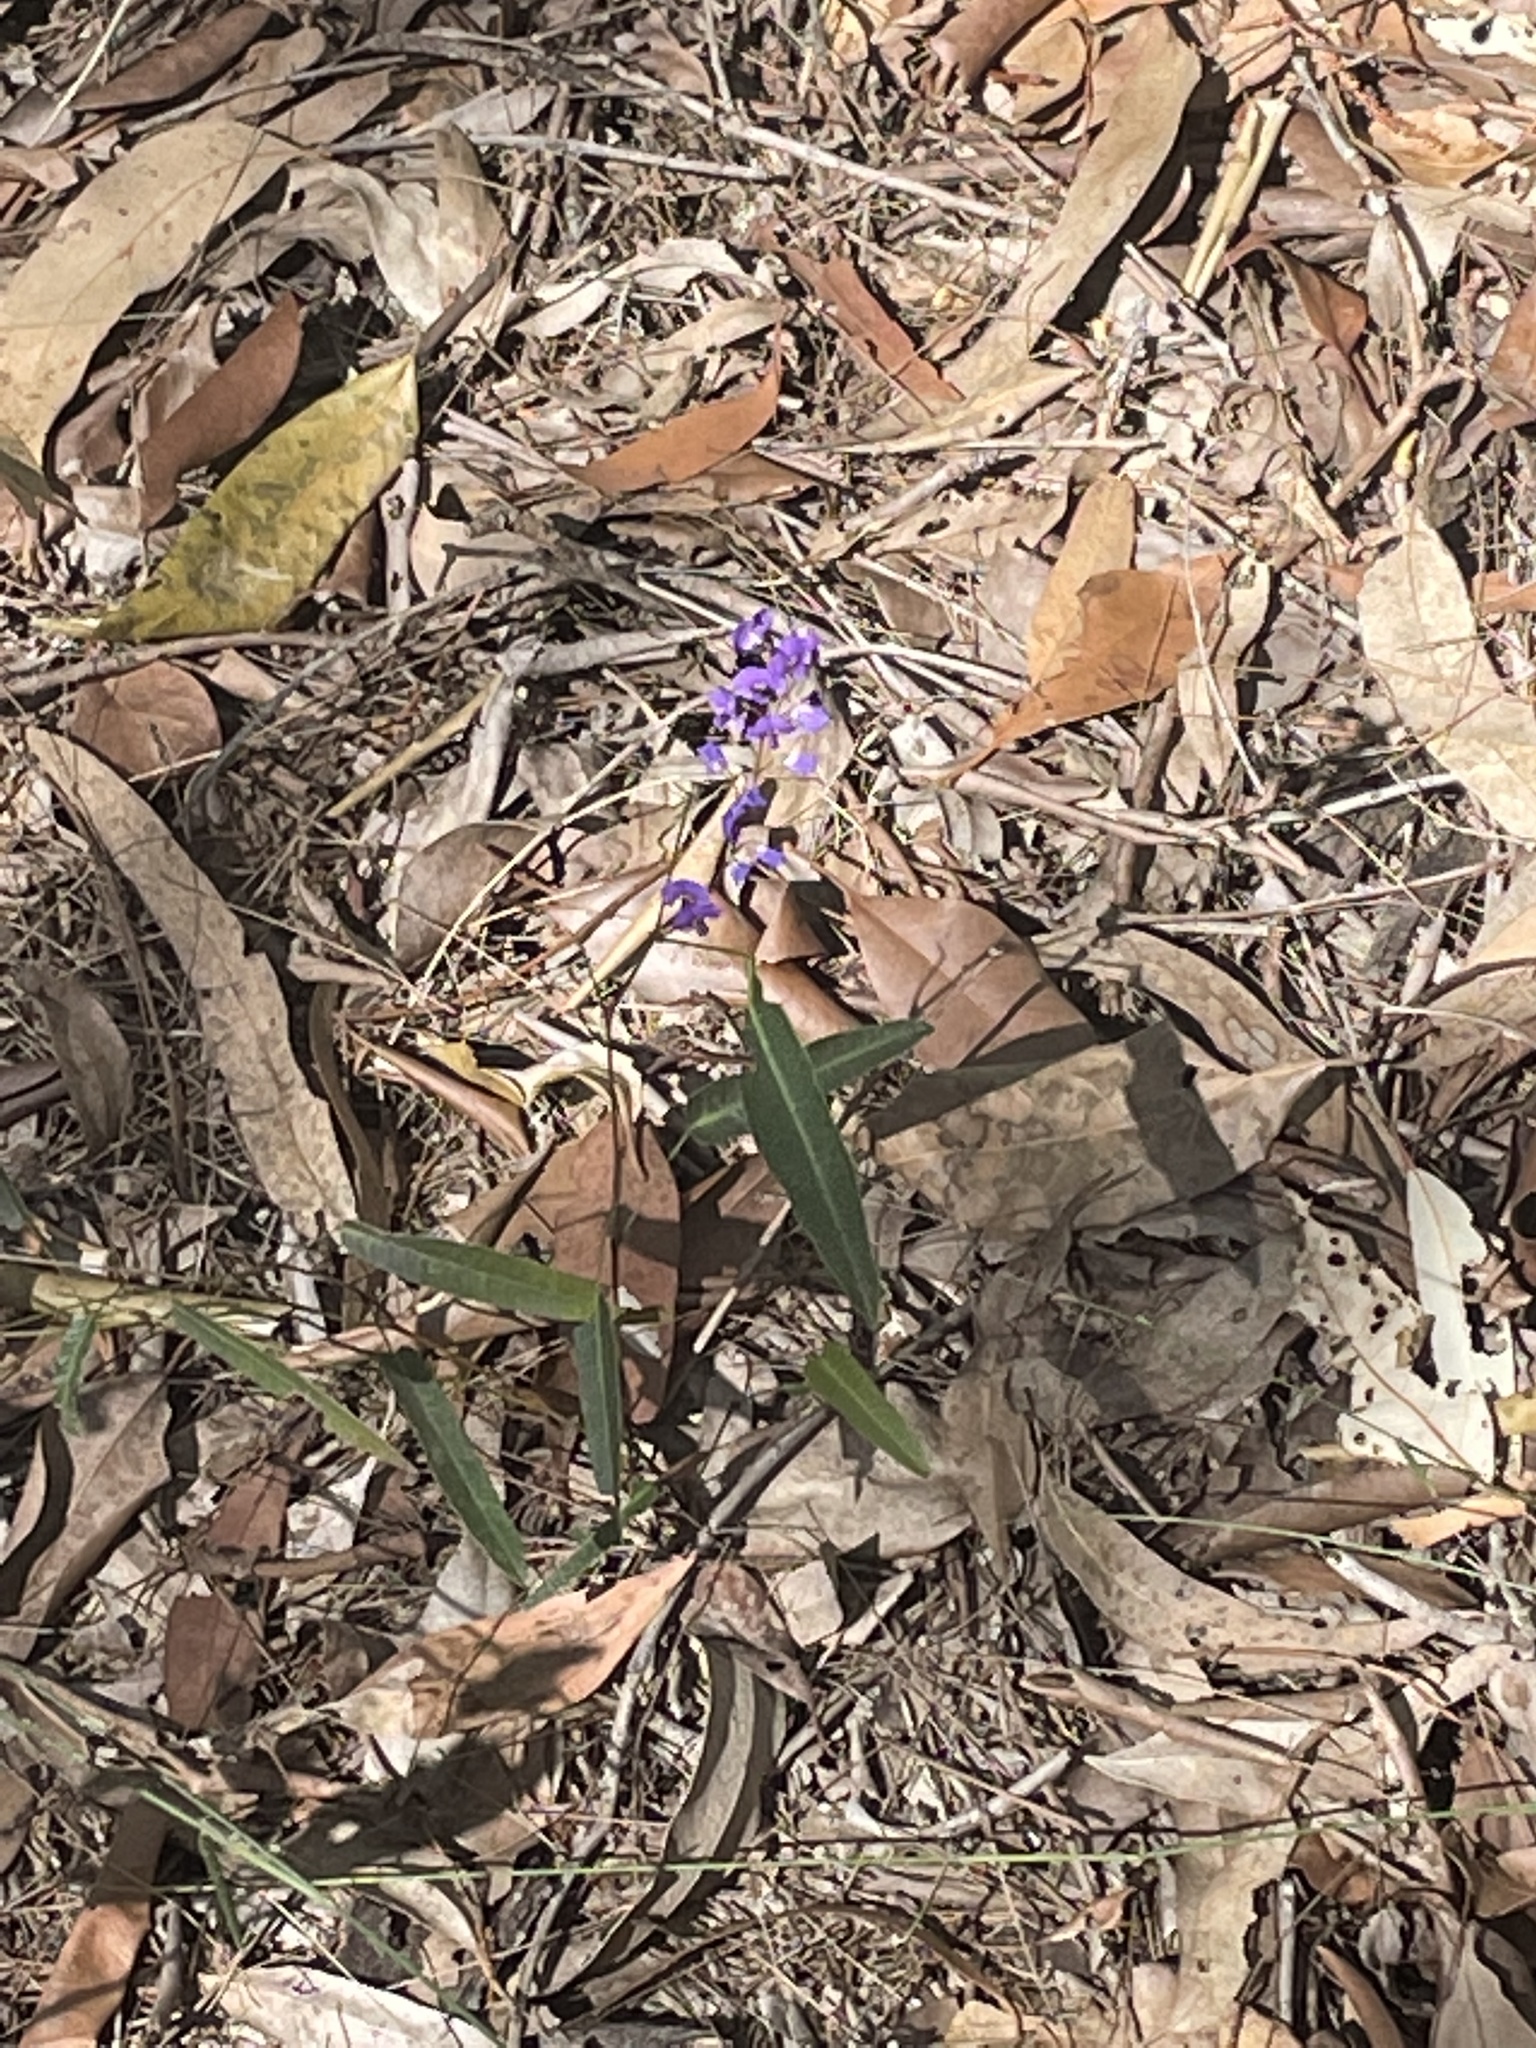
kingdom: Plantae
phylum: Tracheophyta
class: Magnoliopsida
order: Fabales
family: Fabaceae
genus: Hardenbergia
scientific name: Hardenbergia violacea
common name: Coral-pea
